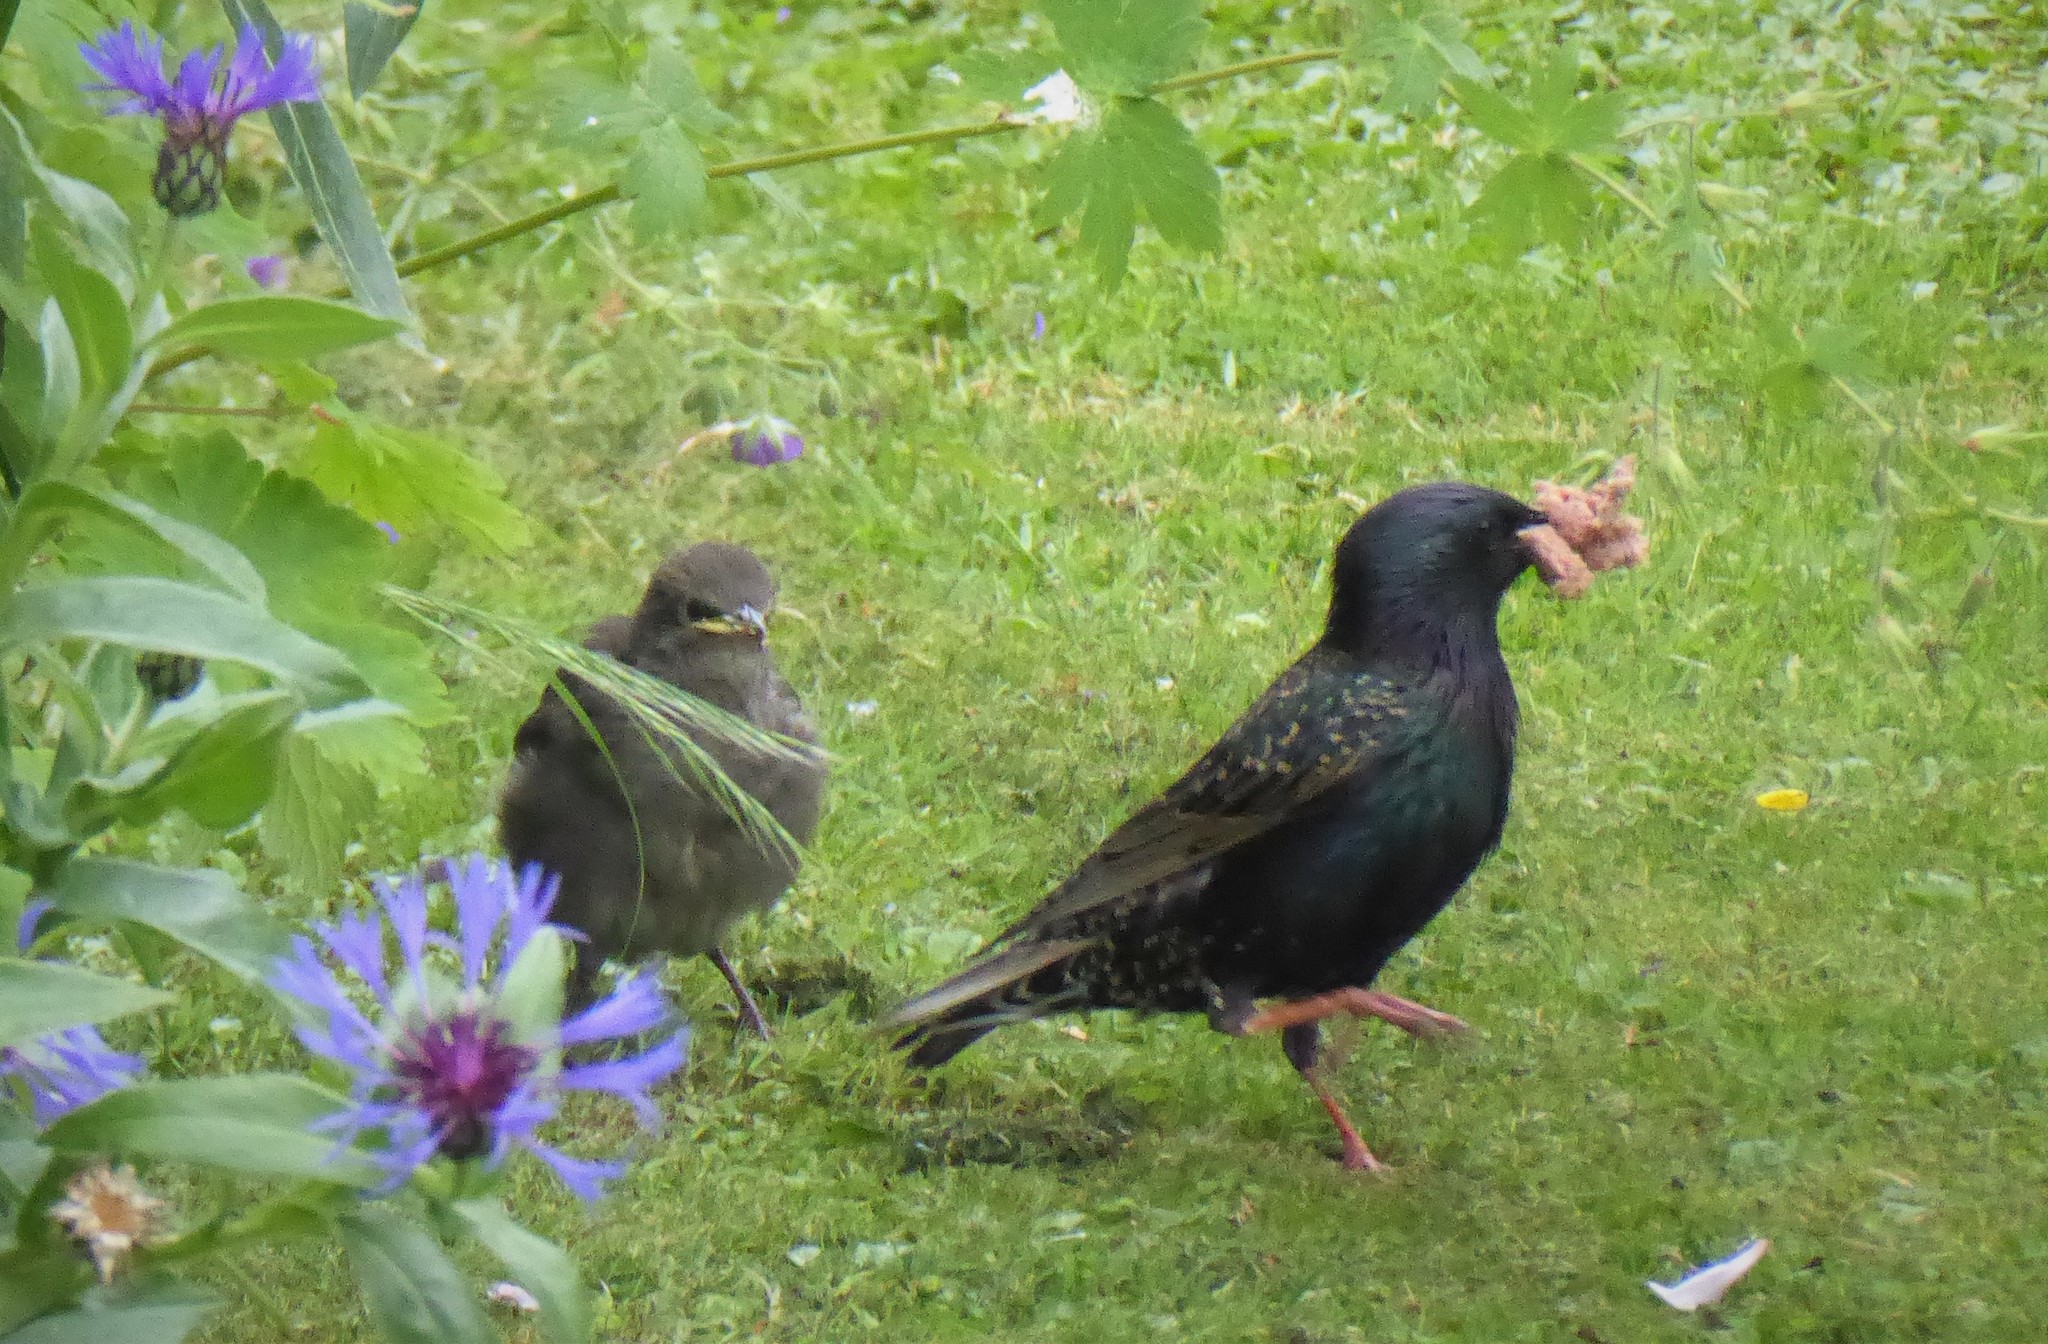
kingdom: Animalia
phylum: Chordata
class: Aves
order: Passeriformes
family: Sturnidae
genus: Sturnus
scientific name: Sturnus vulgaris
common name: Common starling
